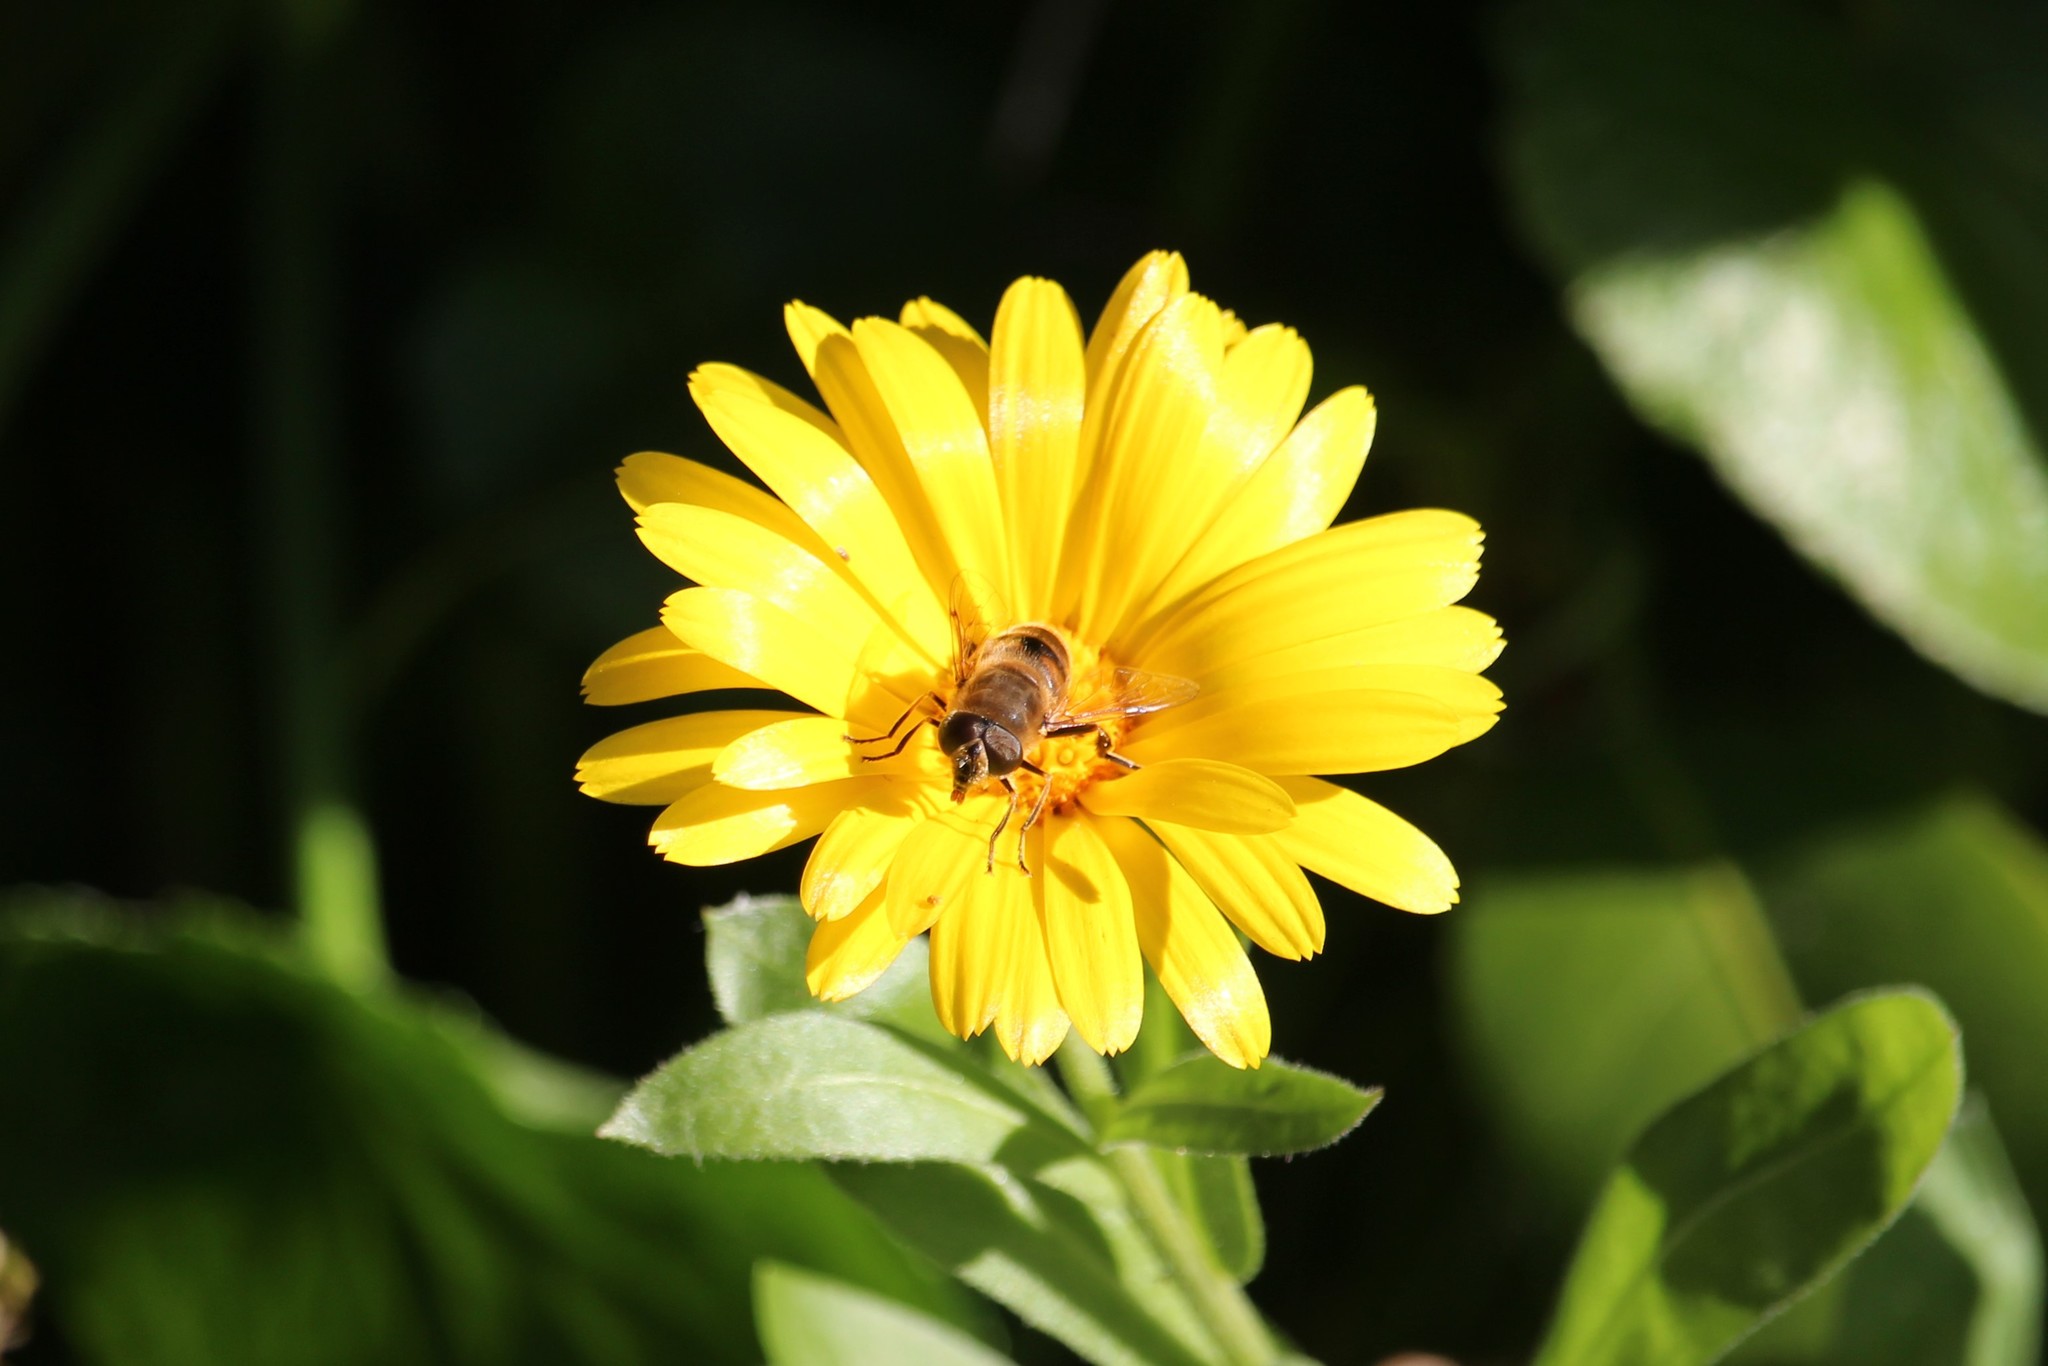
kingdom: Animalia
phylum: Arthropoda
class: Insecta
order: Diptera
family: Syrphidae
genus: Eristalis
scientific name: Eristalis tenax
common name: Drone fly
